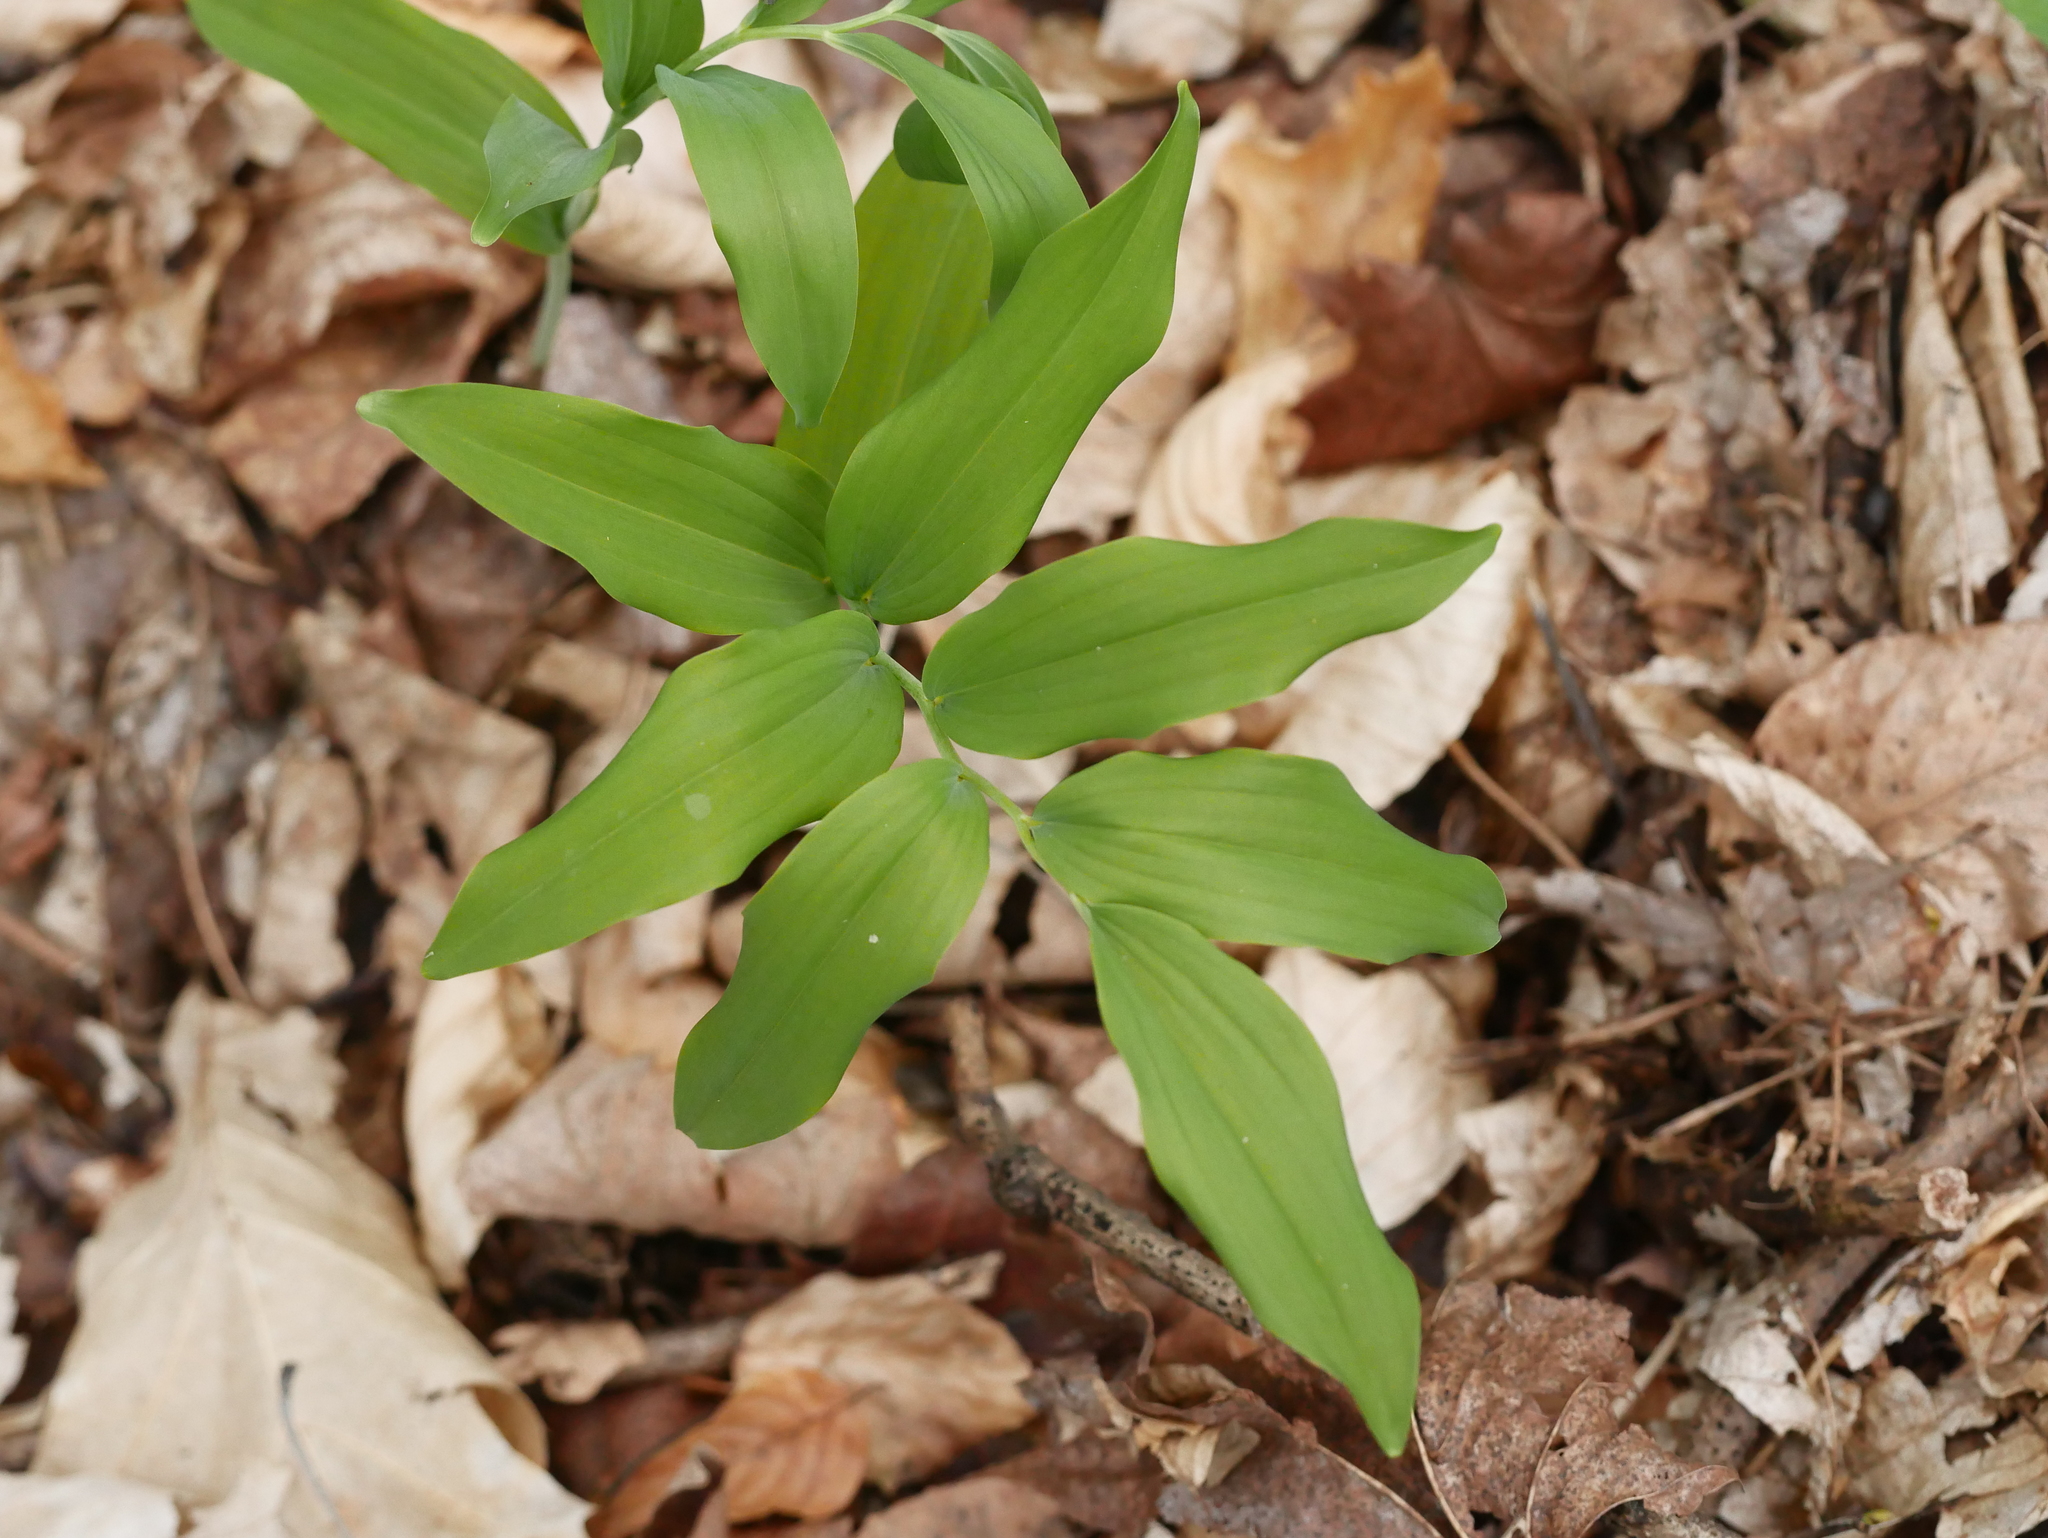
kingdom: Plantae
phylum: Tracheophyta
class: Liliopsida
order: Asparagales
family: Asparagaceae
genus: Polygonatum
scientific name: Polygonatum multiflorum
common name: Solomon's-seal
